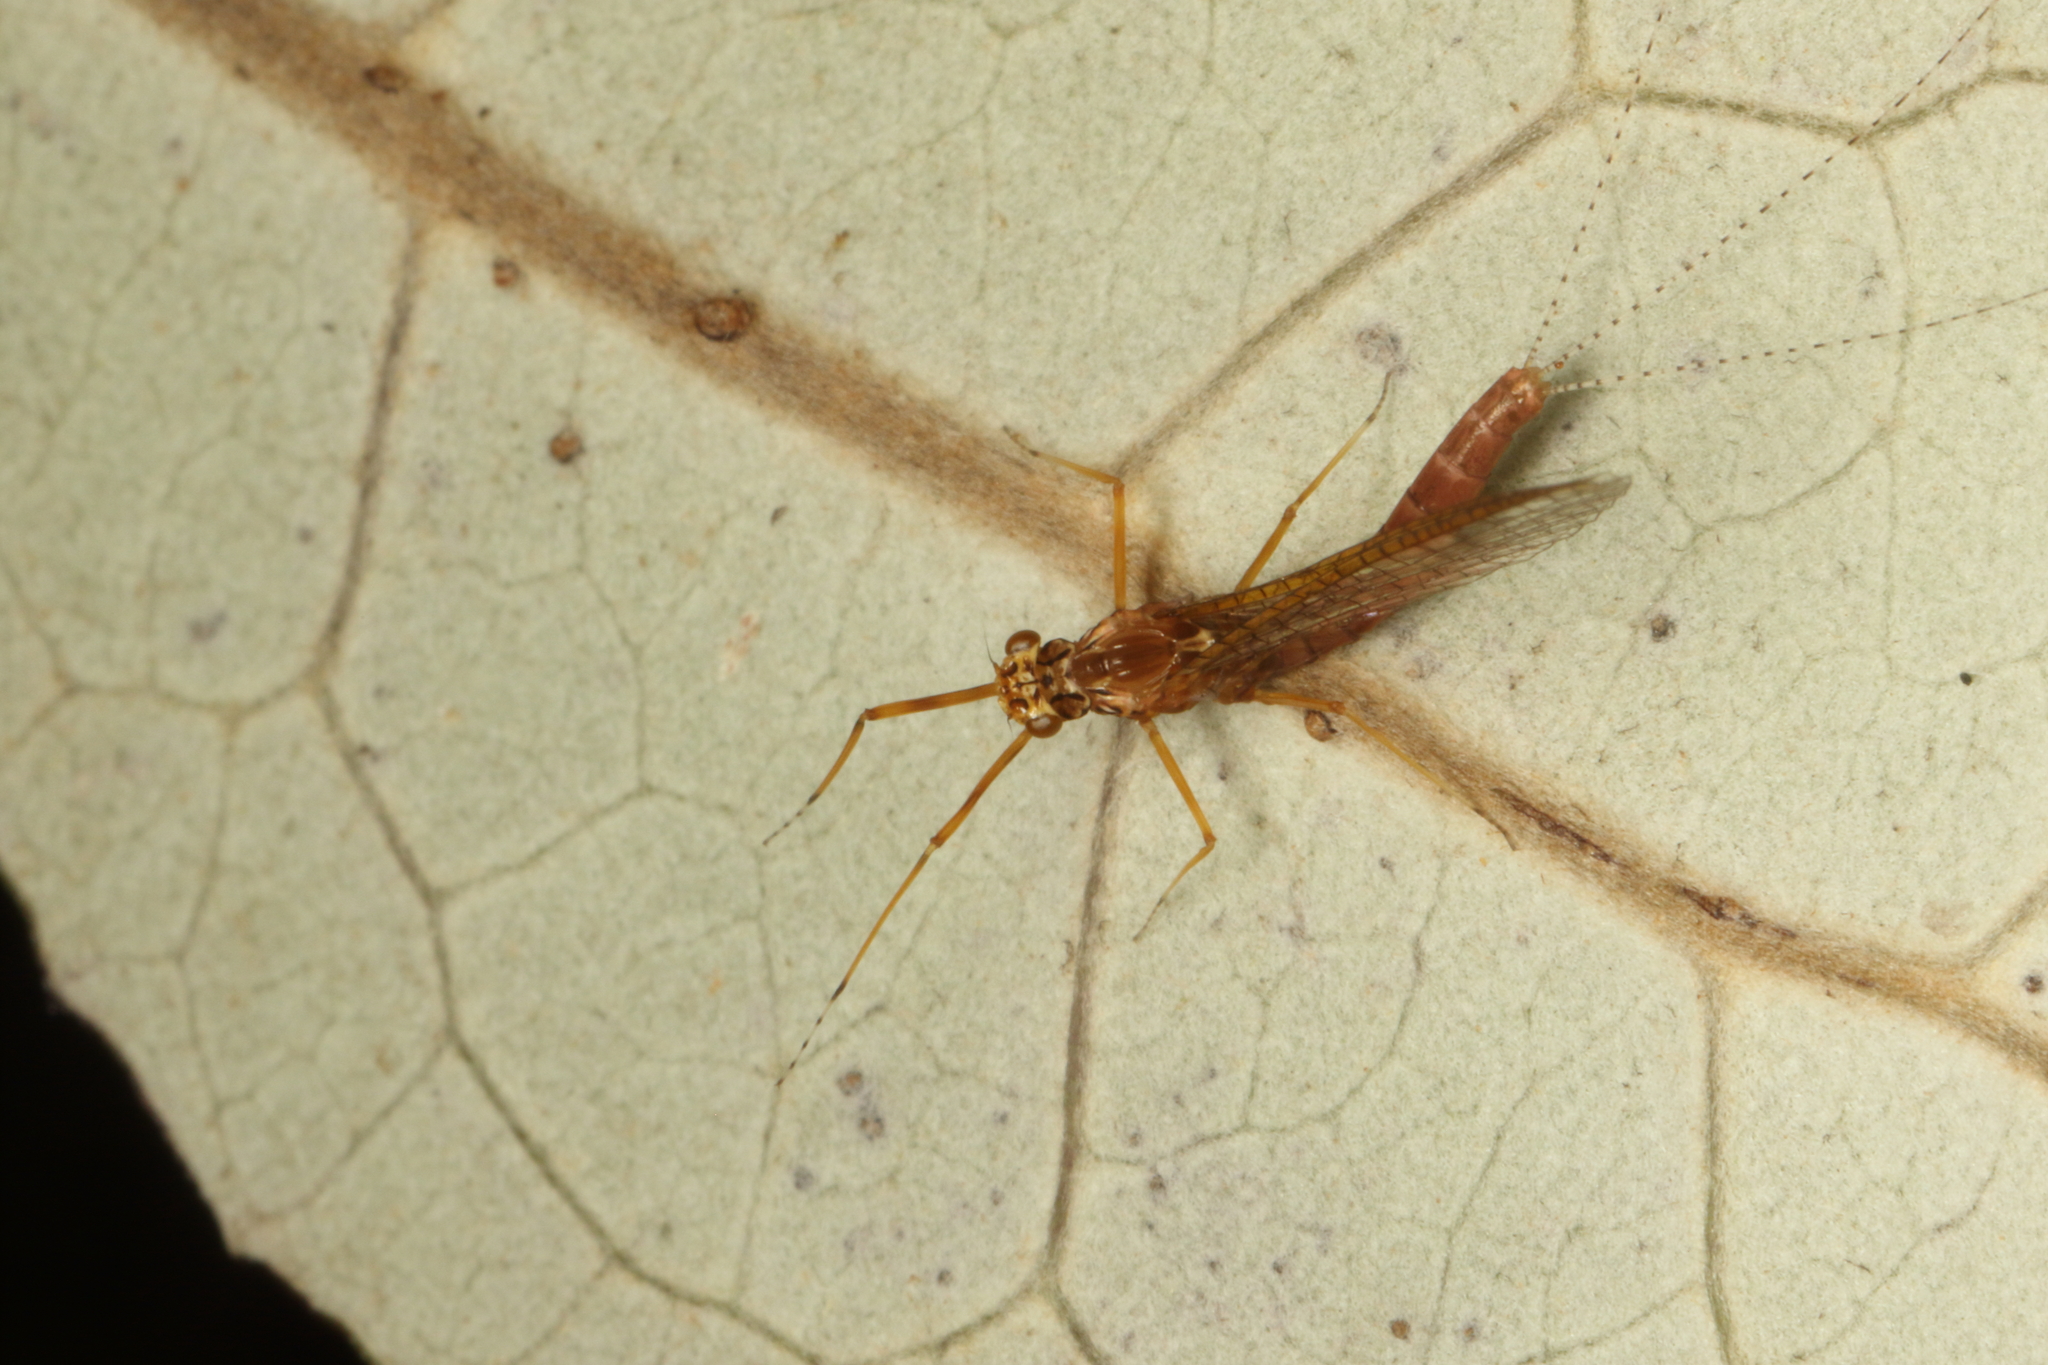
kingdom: Animalia
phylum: Arthropoda
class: Insecta
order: Ephemeroptera
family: Leptophlebiidae
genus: Acanthophlebia
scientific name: Acanthophlebia cruentata
